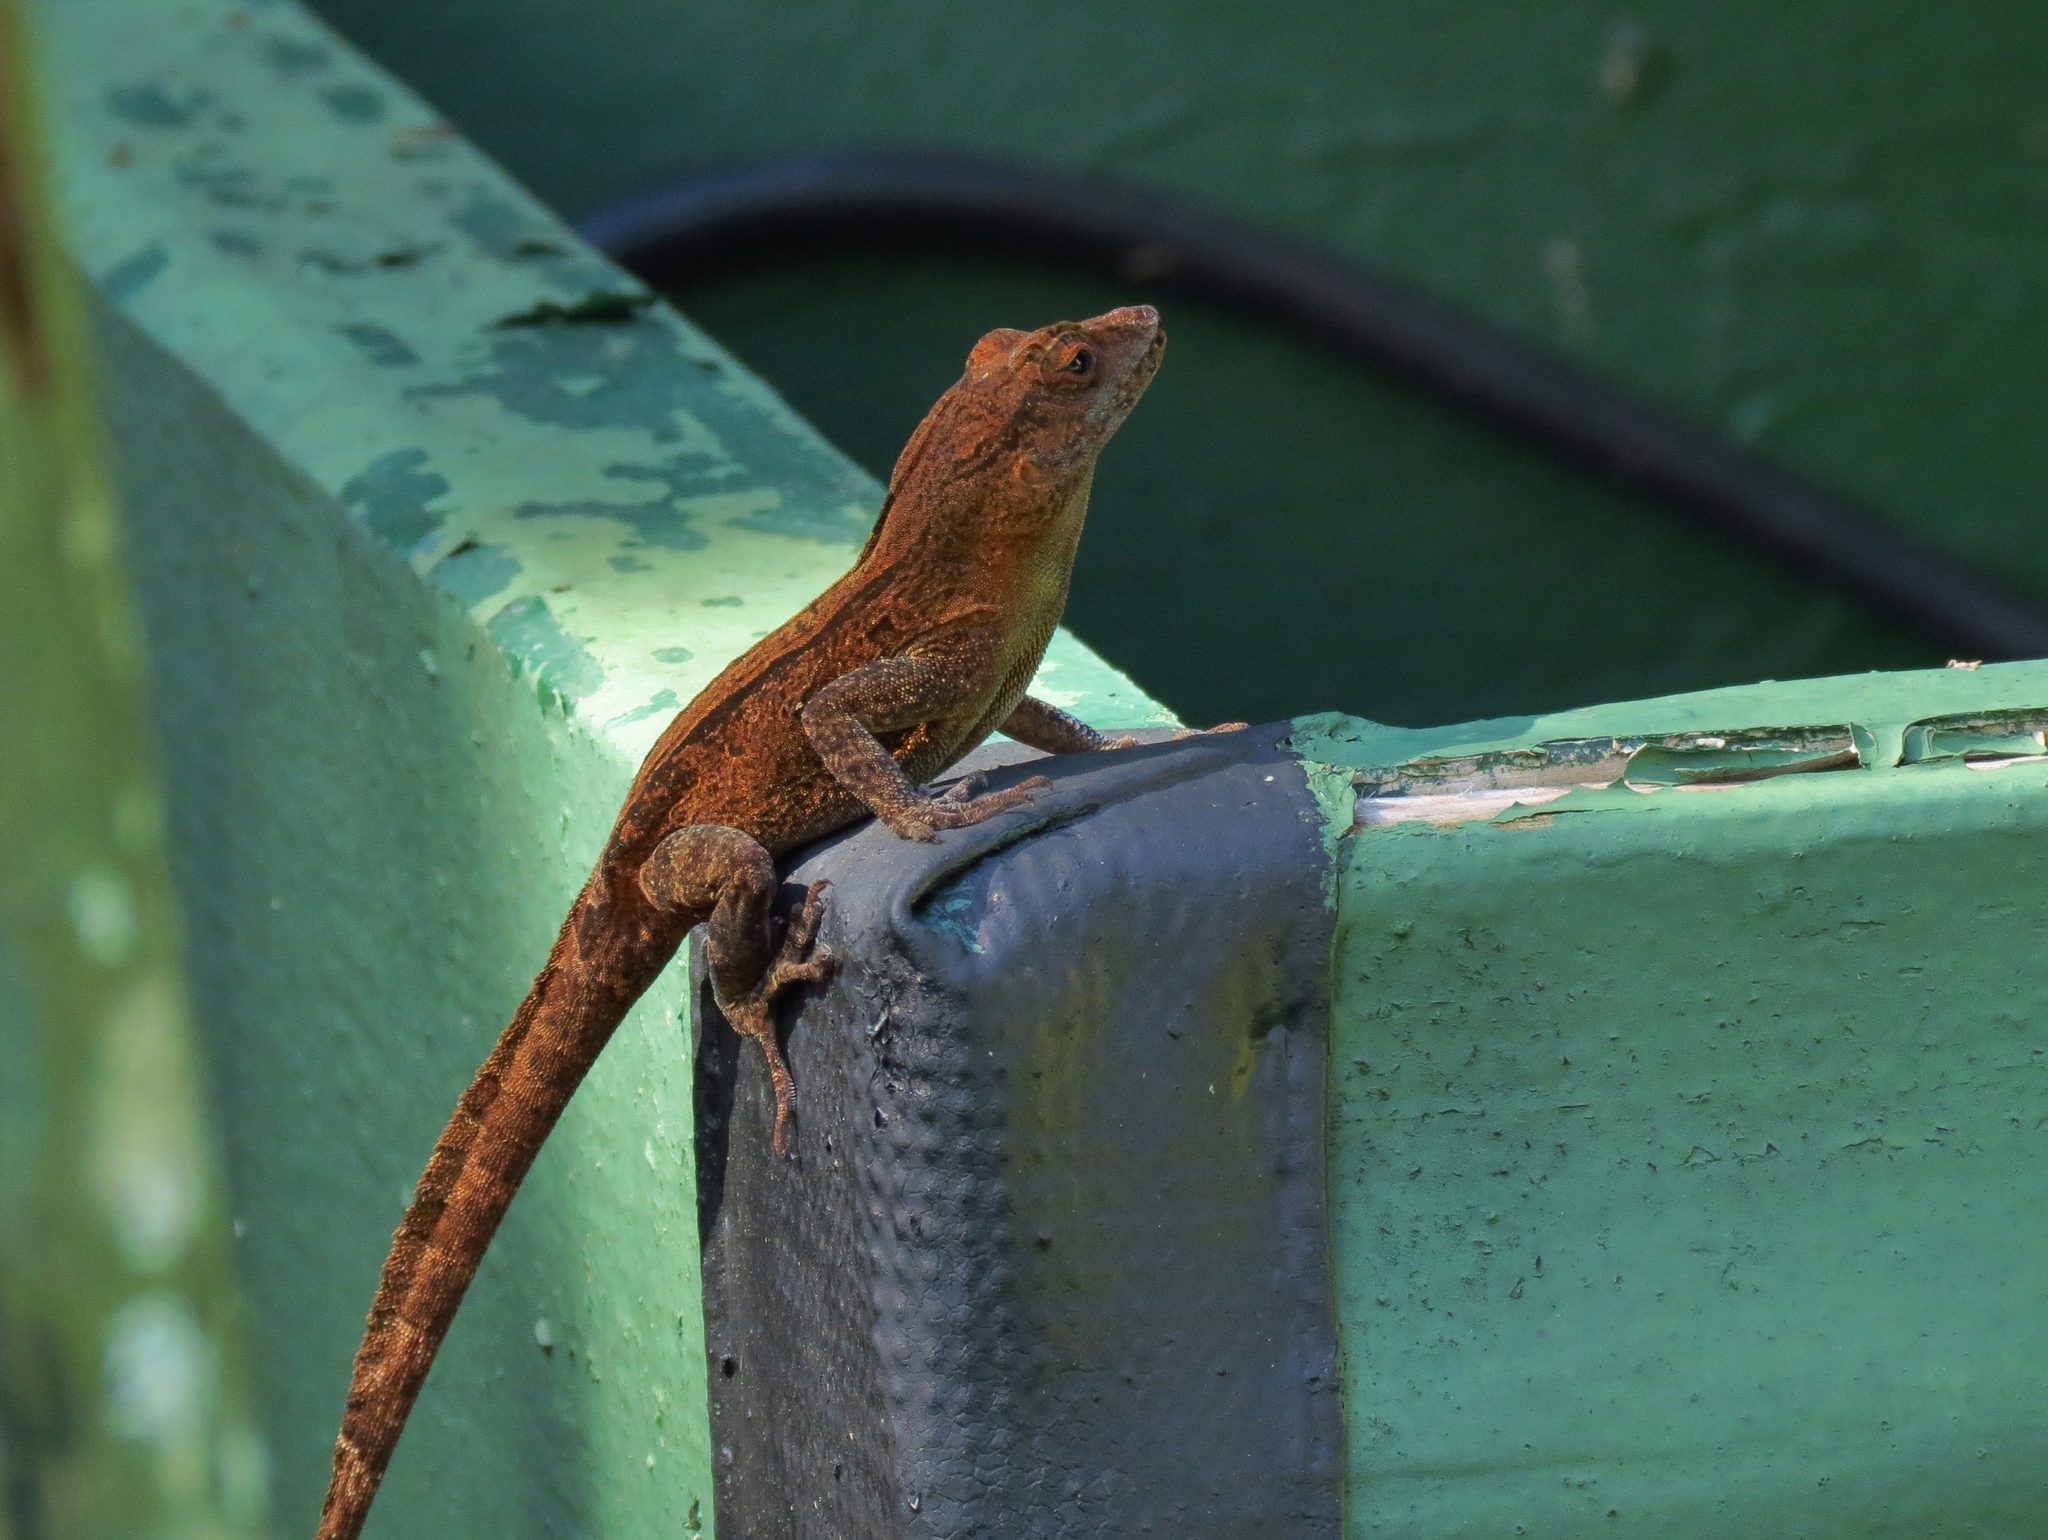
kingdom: Animalia
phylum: Chordata
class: Squamata
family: Dactyloidae
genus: Anolis
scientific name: Anolis cristatellus
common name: Crested anole
